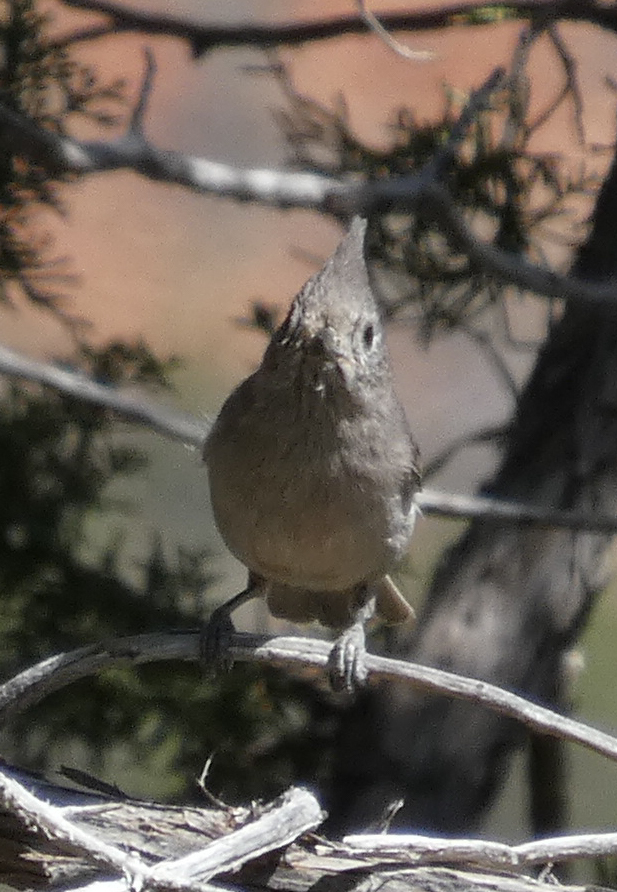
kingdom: Animalia
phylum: Chordata
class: Aves
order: Passeriformes
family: Paridae
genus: Baeolophus
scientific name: Baeolophus ridgwayi
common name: Juniper titmouse
